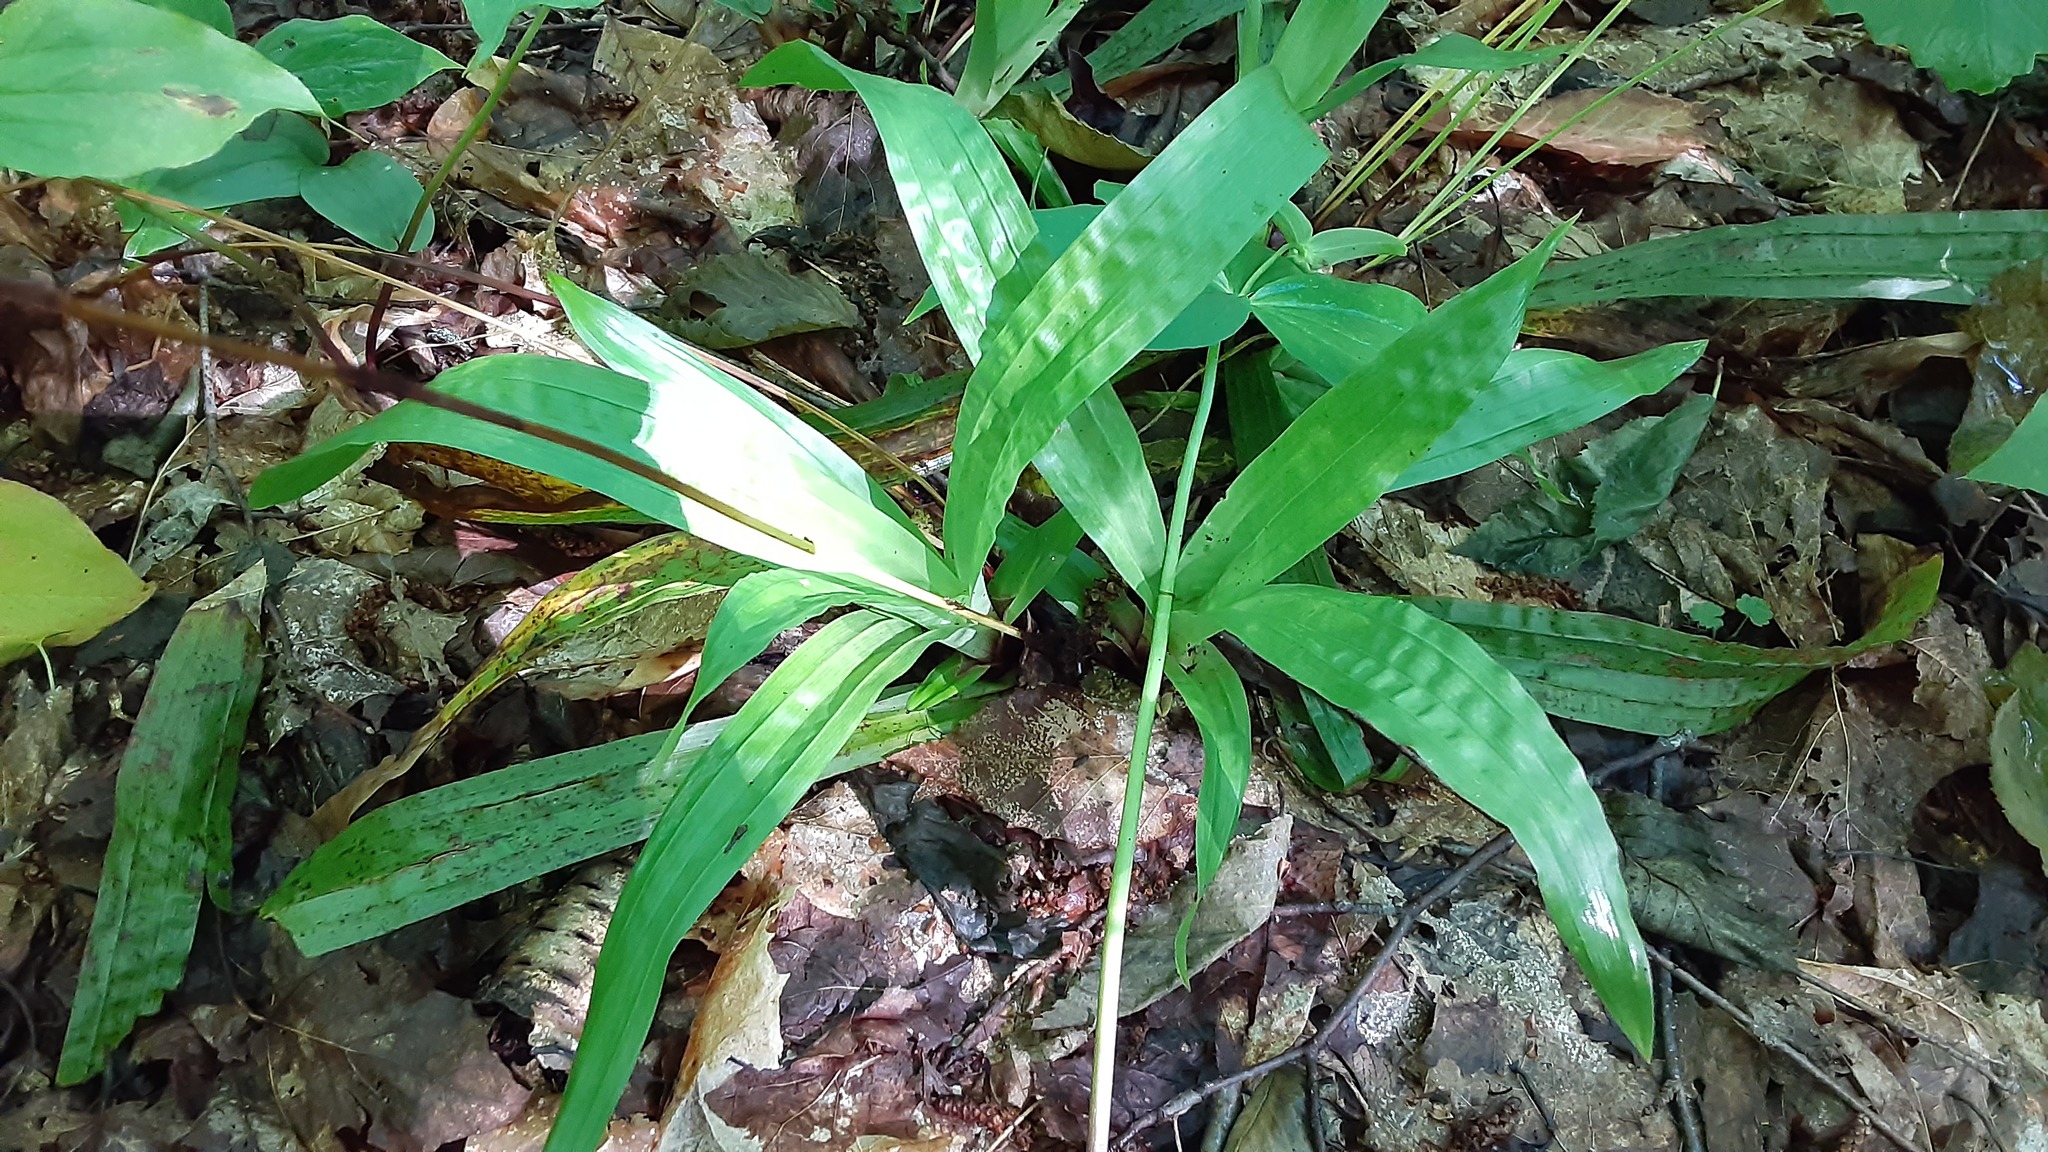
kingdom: Plantae
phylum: Tracheophyta
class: Liliopsida
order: Poales
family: Cyperaceae
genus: Carex
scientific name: Carex plantaginea
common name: Plantain-leaved sedge
